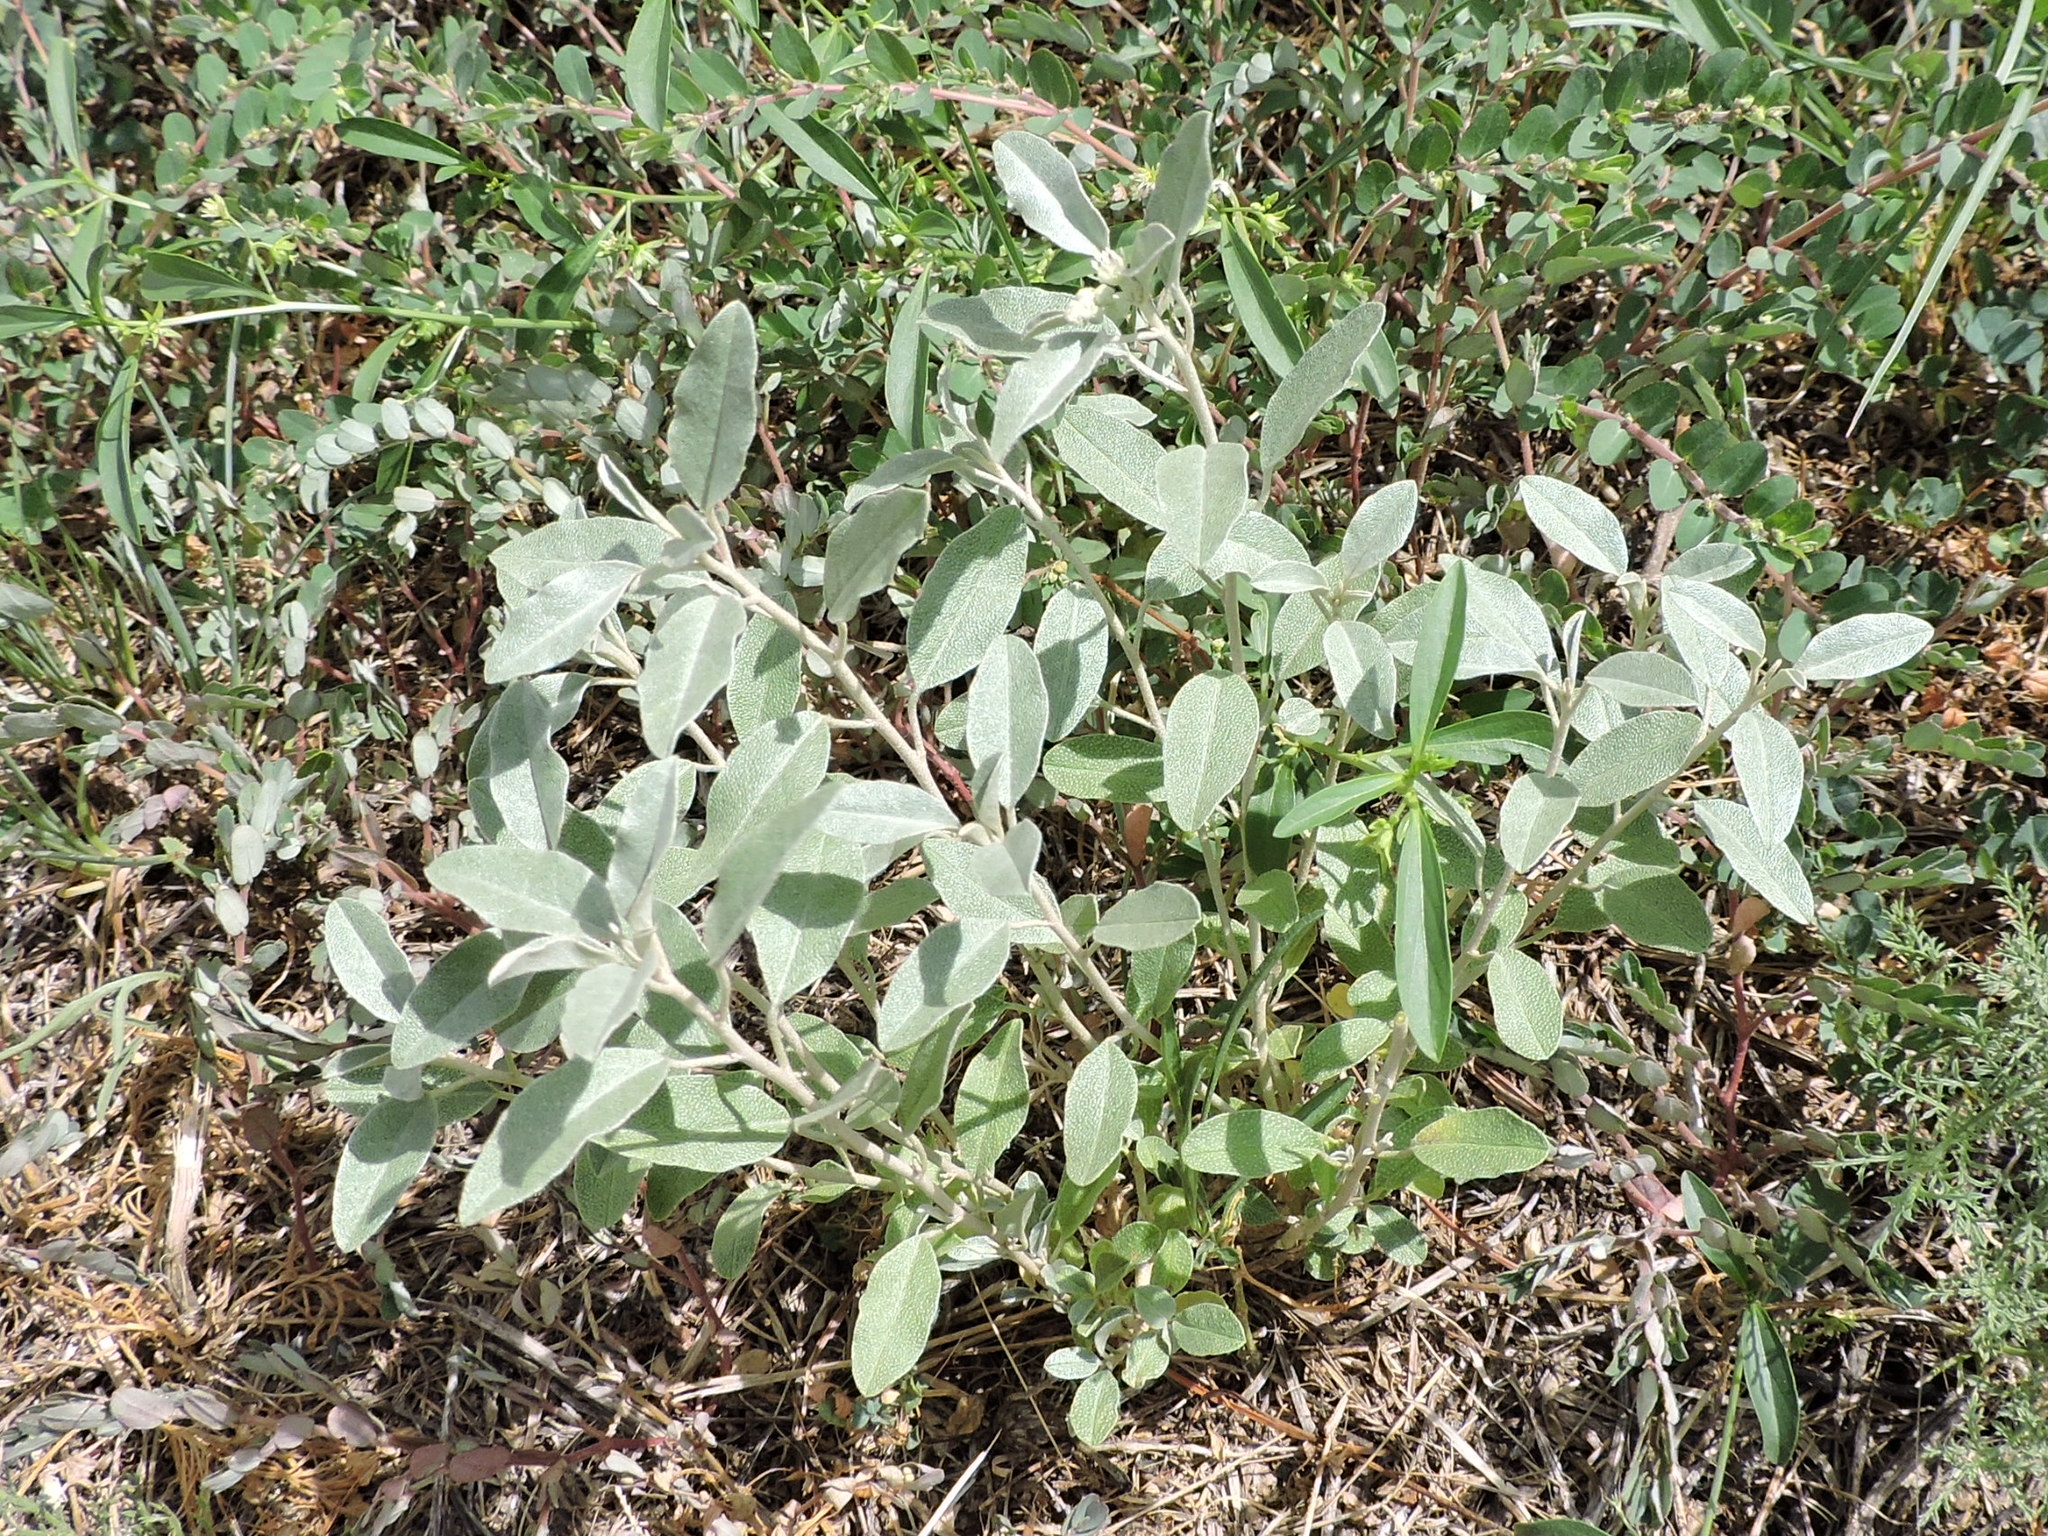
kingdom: Plantae
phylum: Tracheophyta
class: Magnoliopsida
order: Malpighiales
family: Euphorbiaceae
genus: Croton
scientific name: Croton dioicus
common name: Grassland croton
